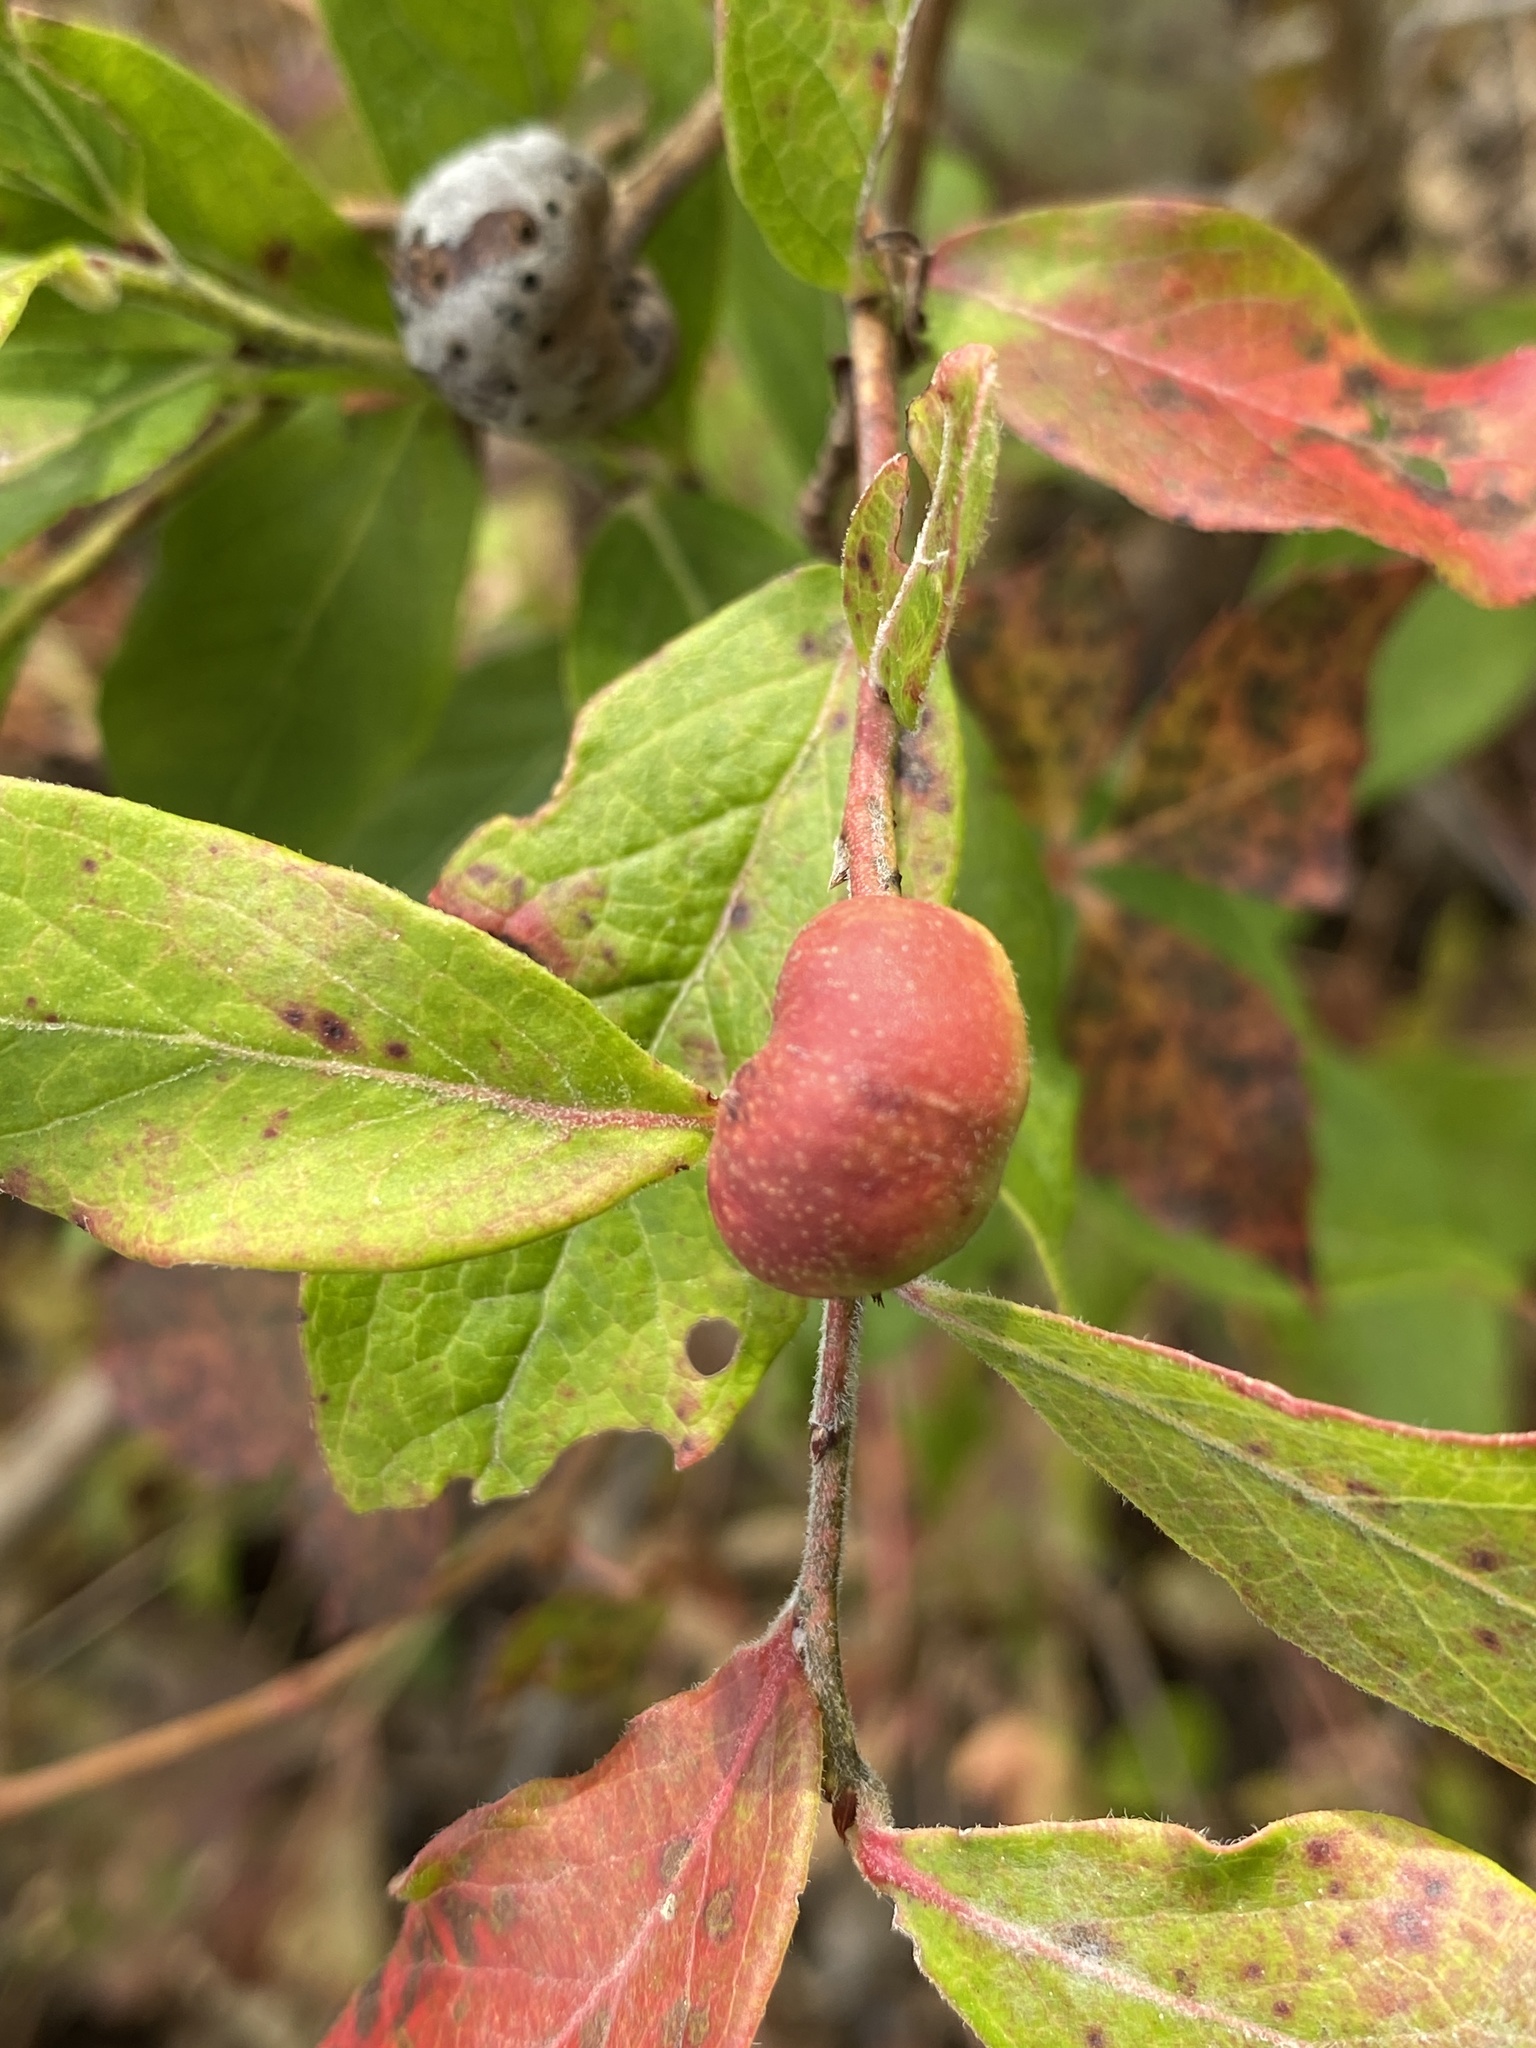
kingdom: Animalia
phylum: Arthropoda
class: Insecta
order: Hymenoptera
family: Pteromalidae
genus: Hemadas
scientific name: Hemadas nubilipennis
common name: Blueberry stem gall wasp
